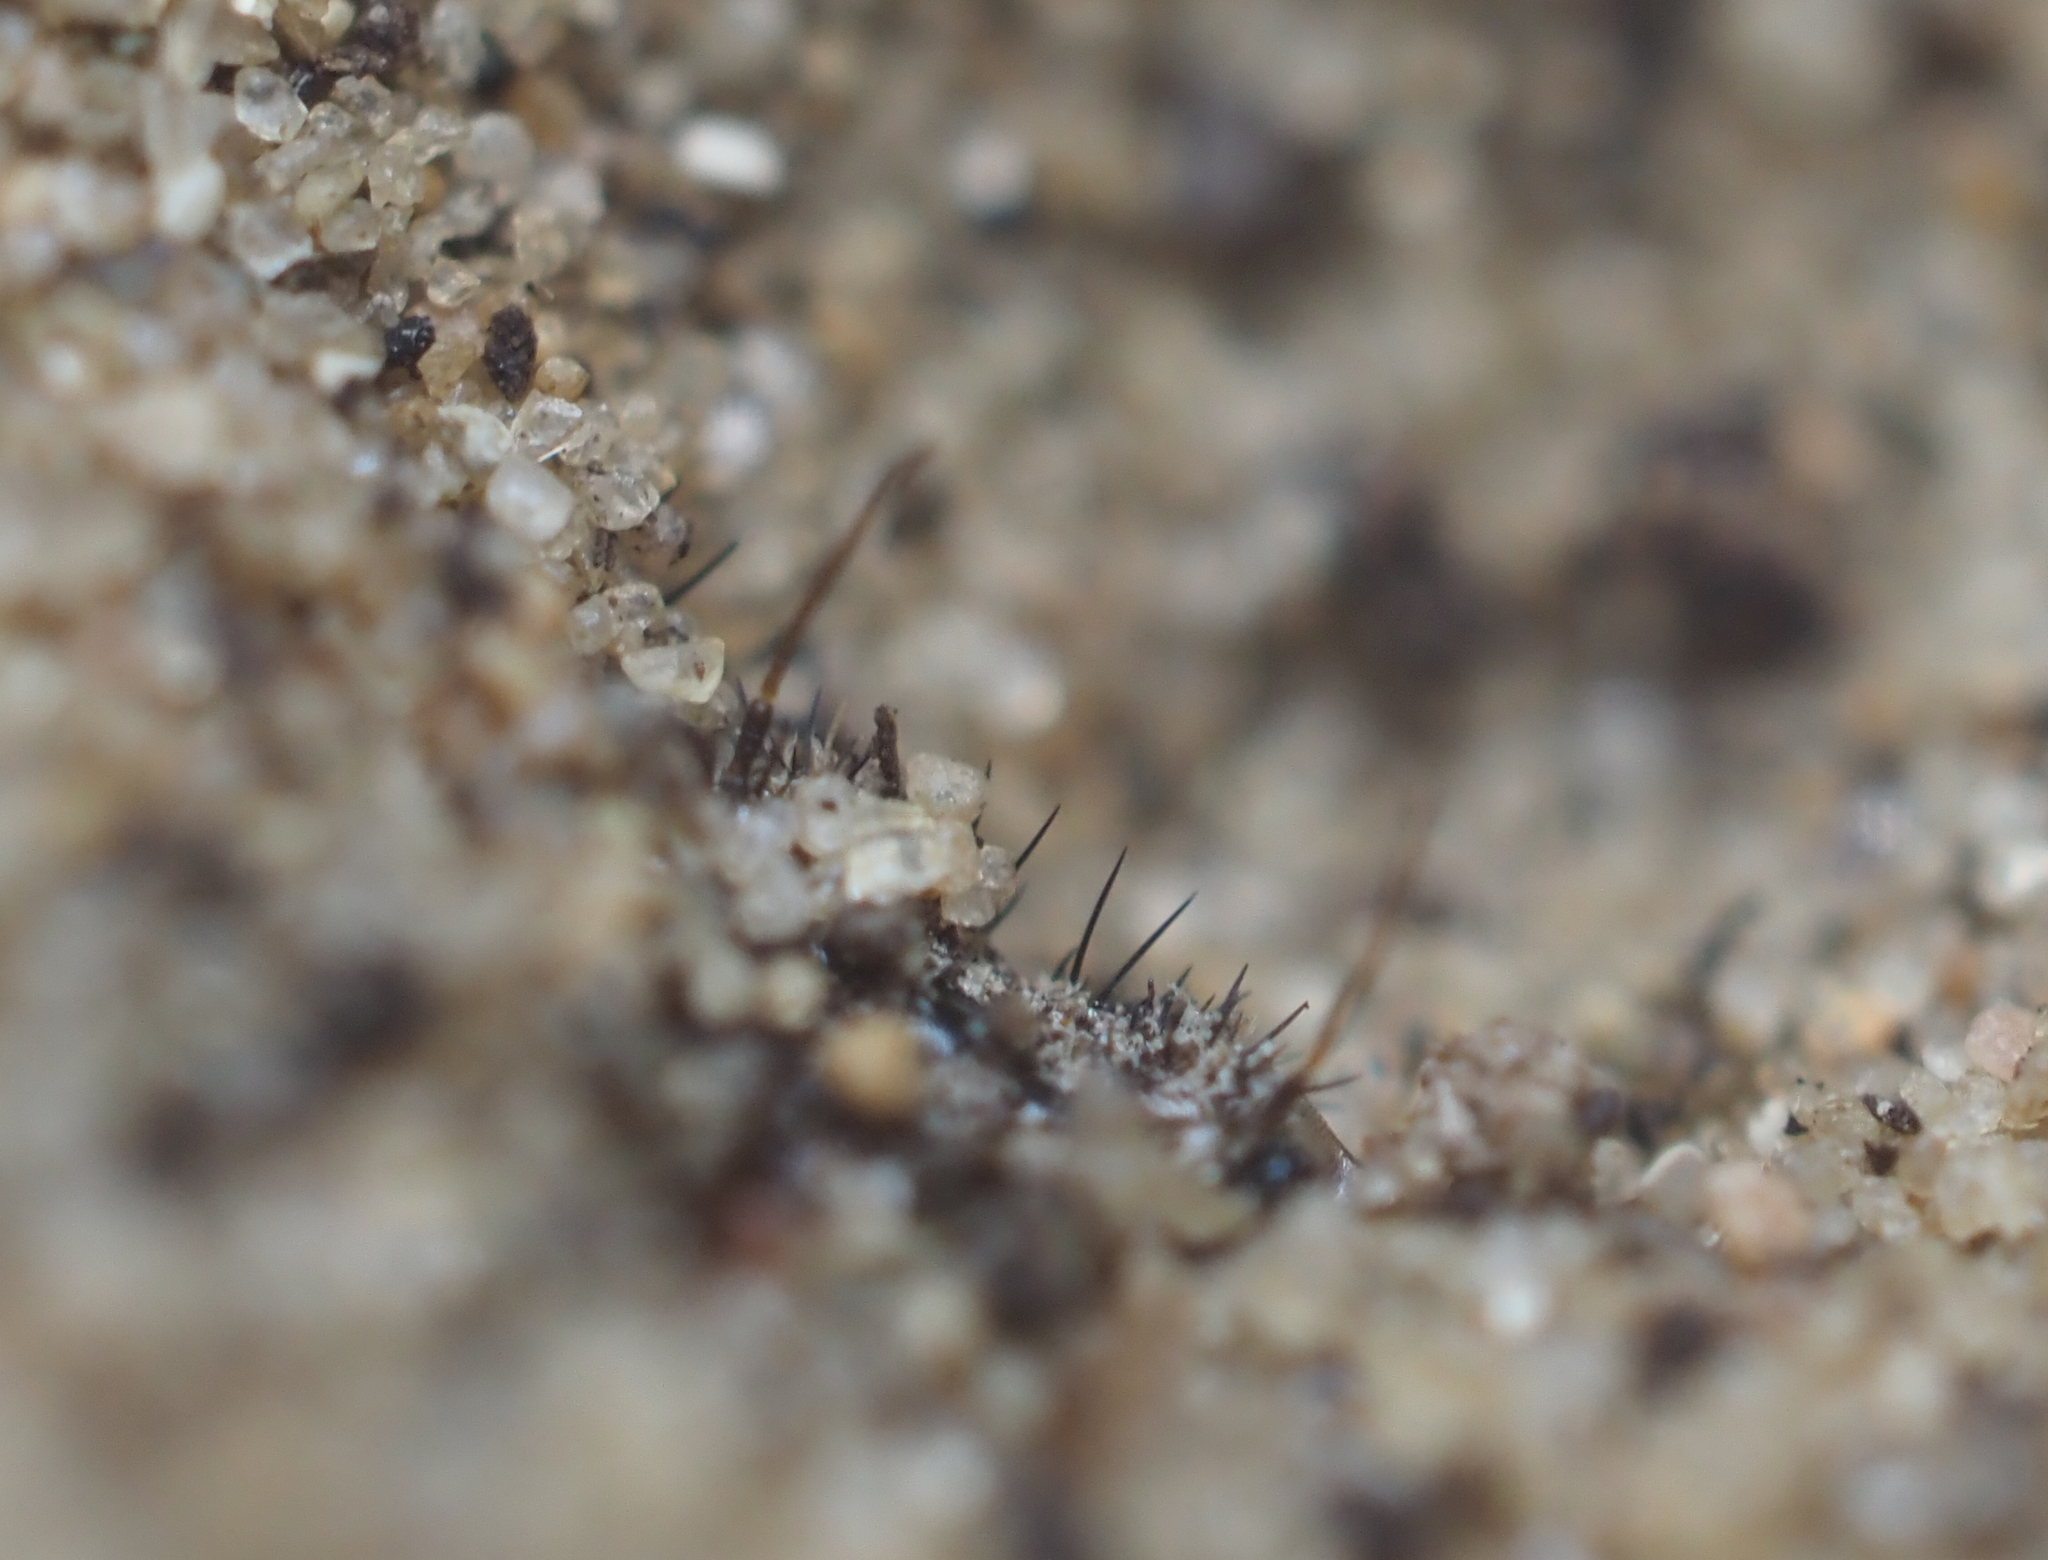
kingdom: Animalia
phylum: Arthropoda
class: Insecta
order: Neuroptera
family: Myrmeleontidae
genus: Myrmeleon
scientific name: Myrmeleon immaculatus
